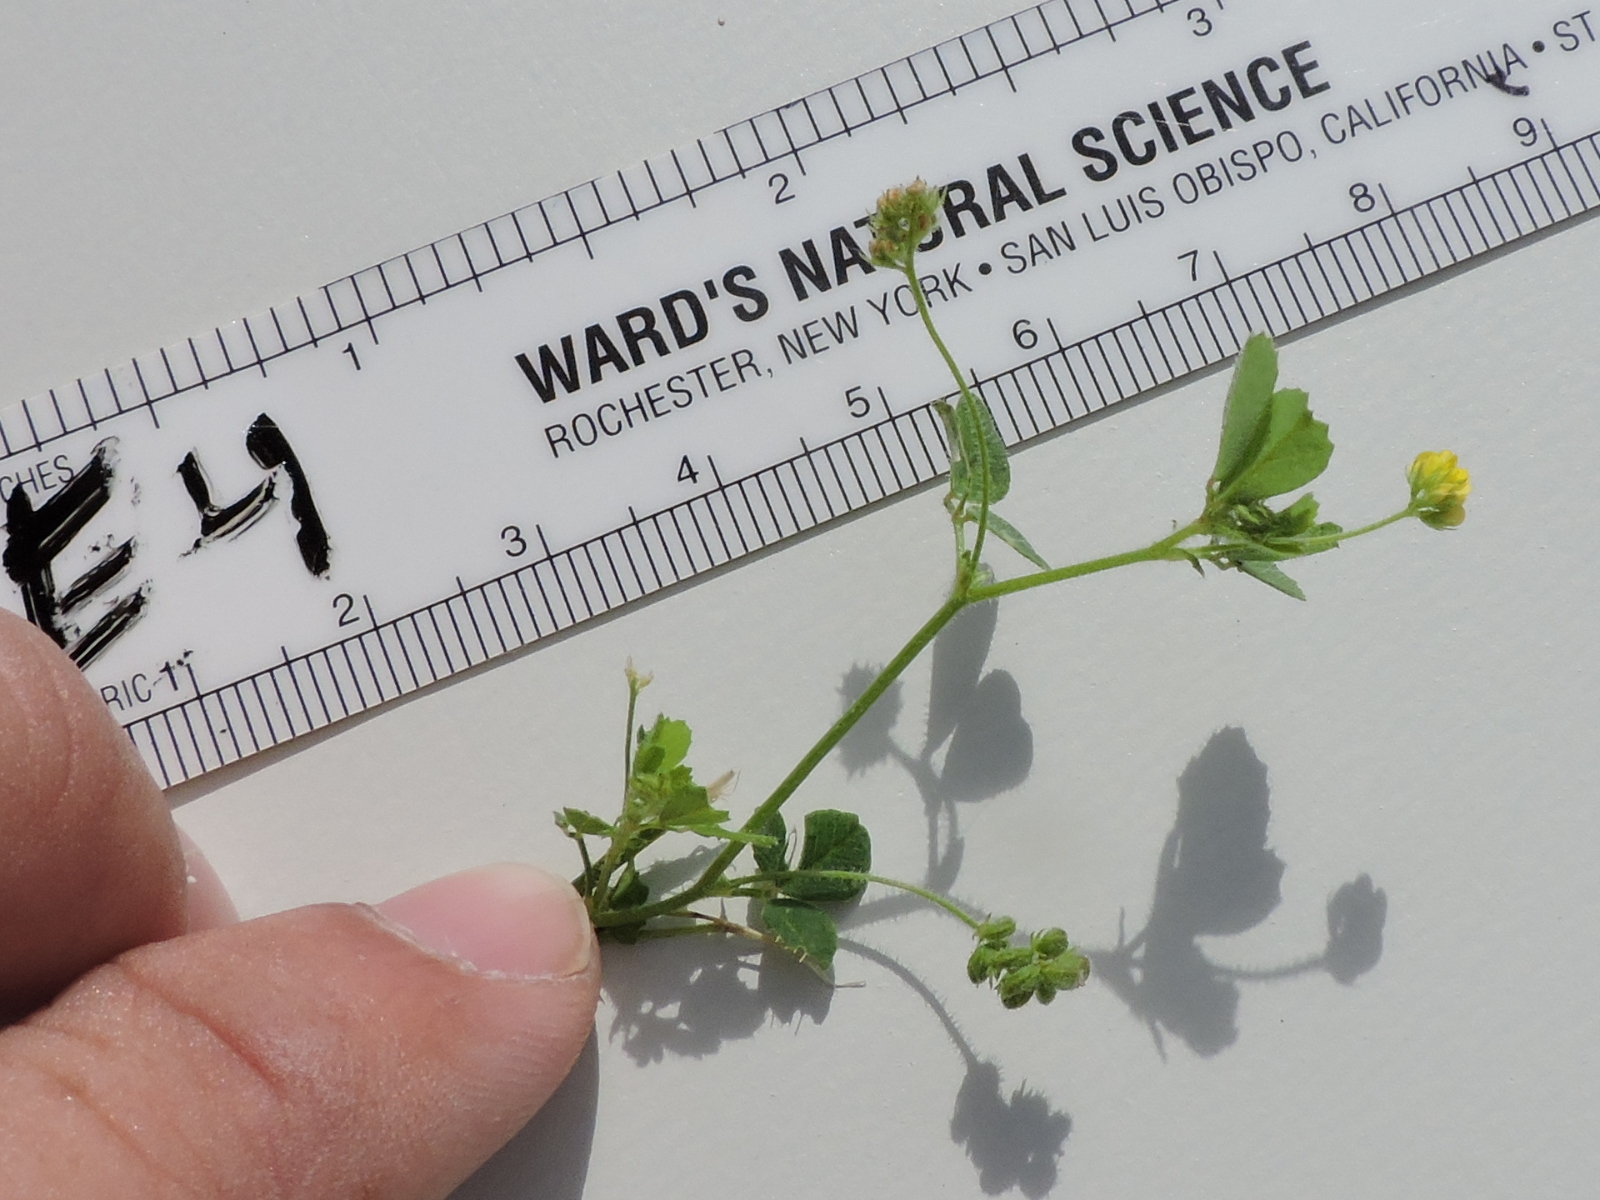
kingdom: Plantae
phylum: Tracheophyta
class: Magnoliopsida
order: Fabales
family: Fabaceae
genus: Medicago
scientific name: Medicago lupulina
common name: Black medick
